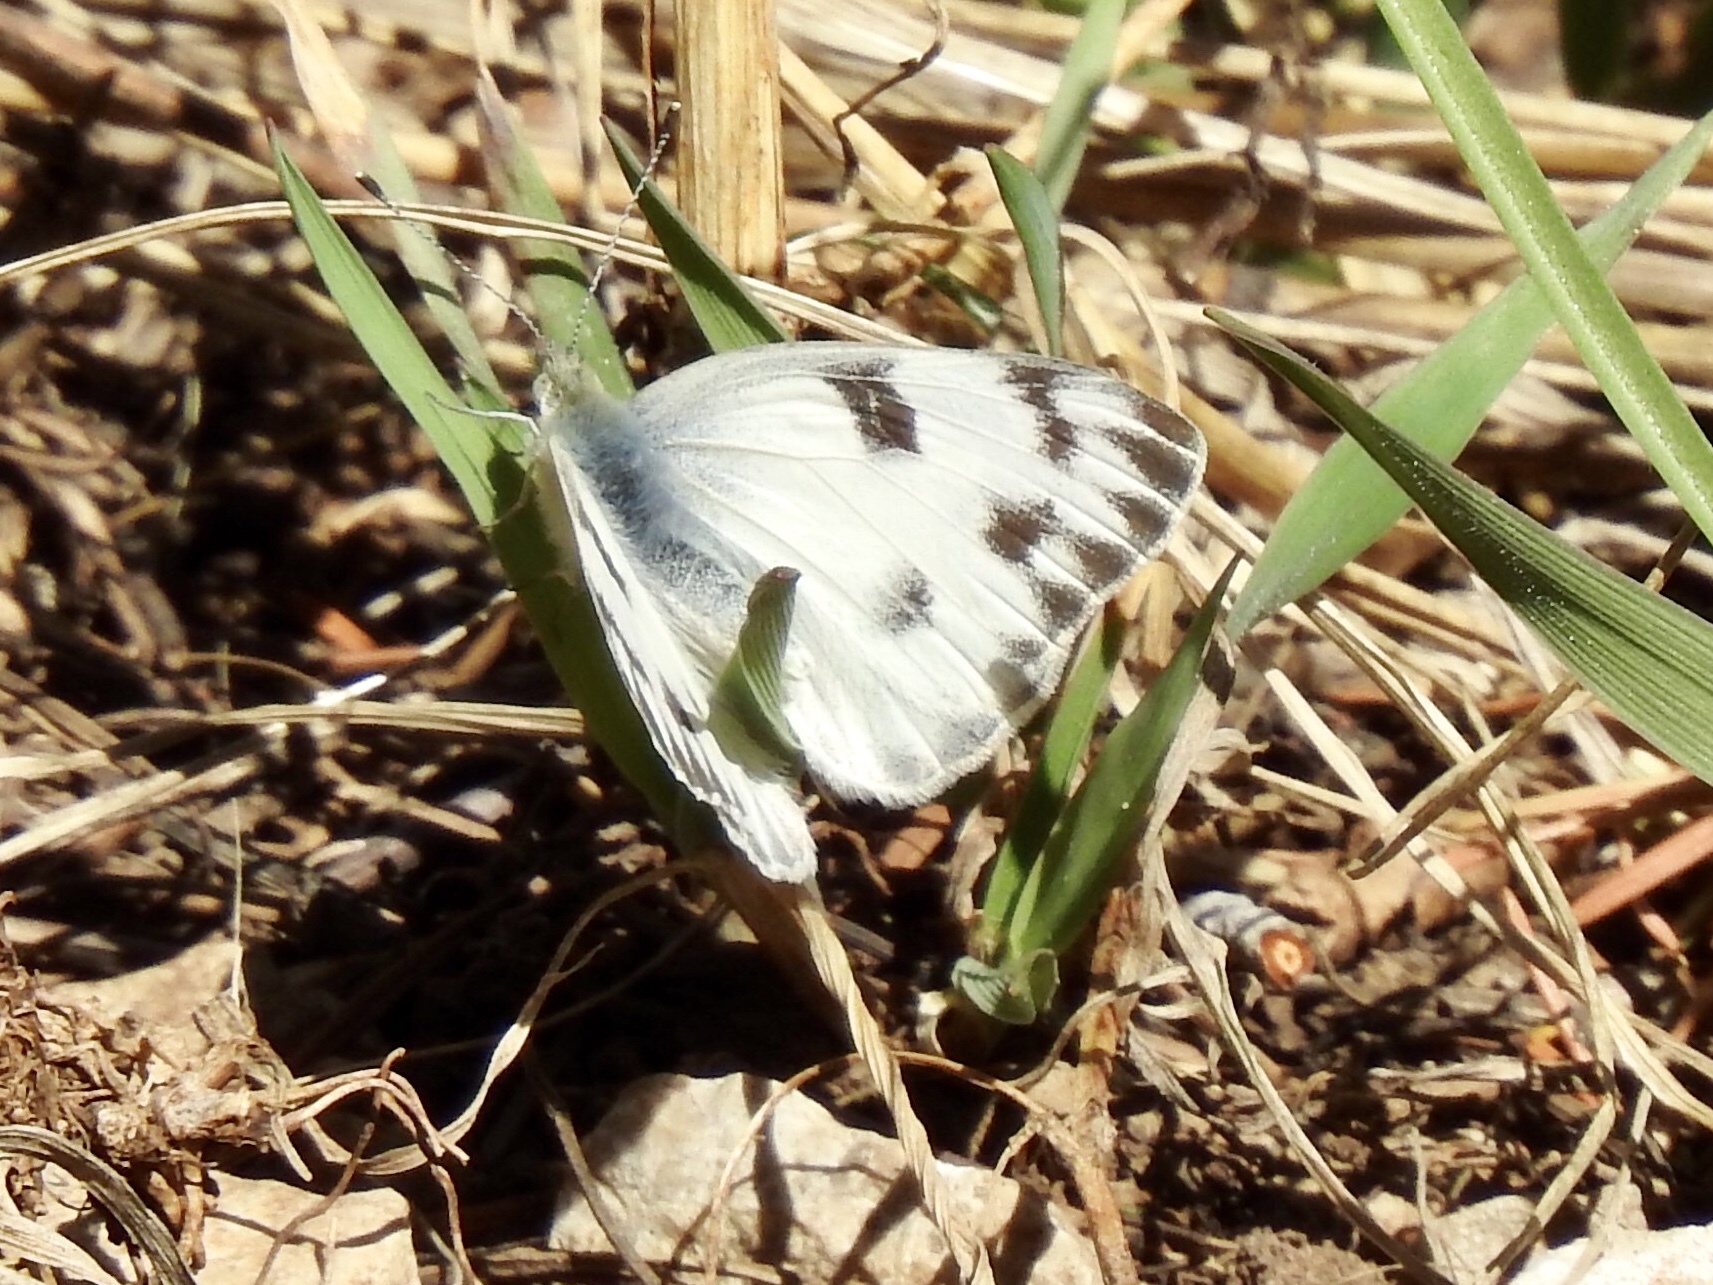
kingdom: Animalia
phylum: Arthropoda
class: Insecta
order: Lepidoptera
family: Pieridae
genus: Pontia
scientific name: Pontia protodice
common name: Checkered white
